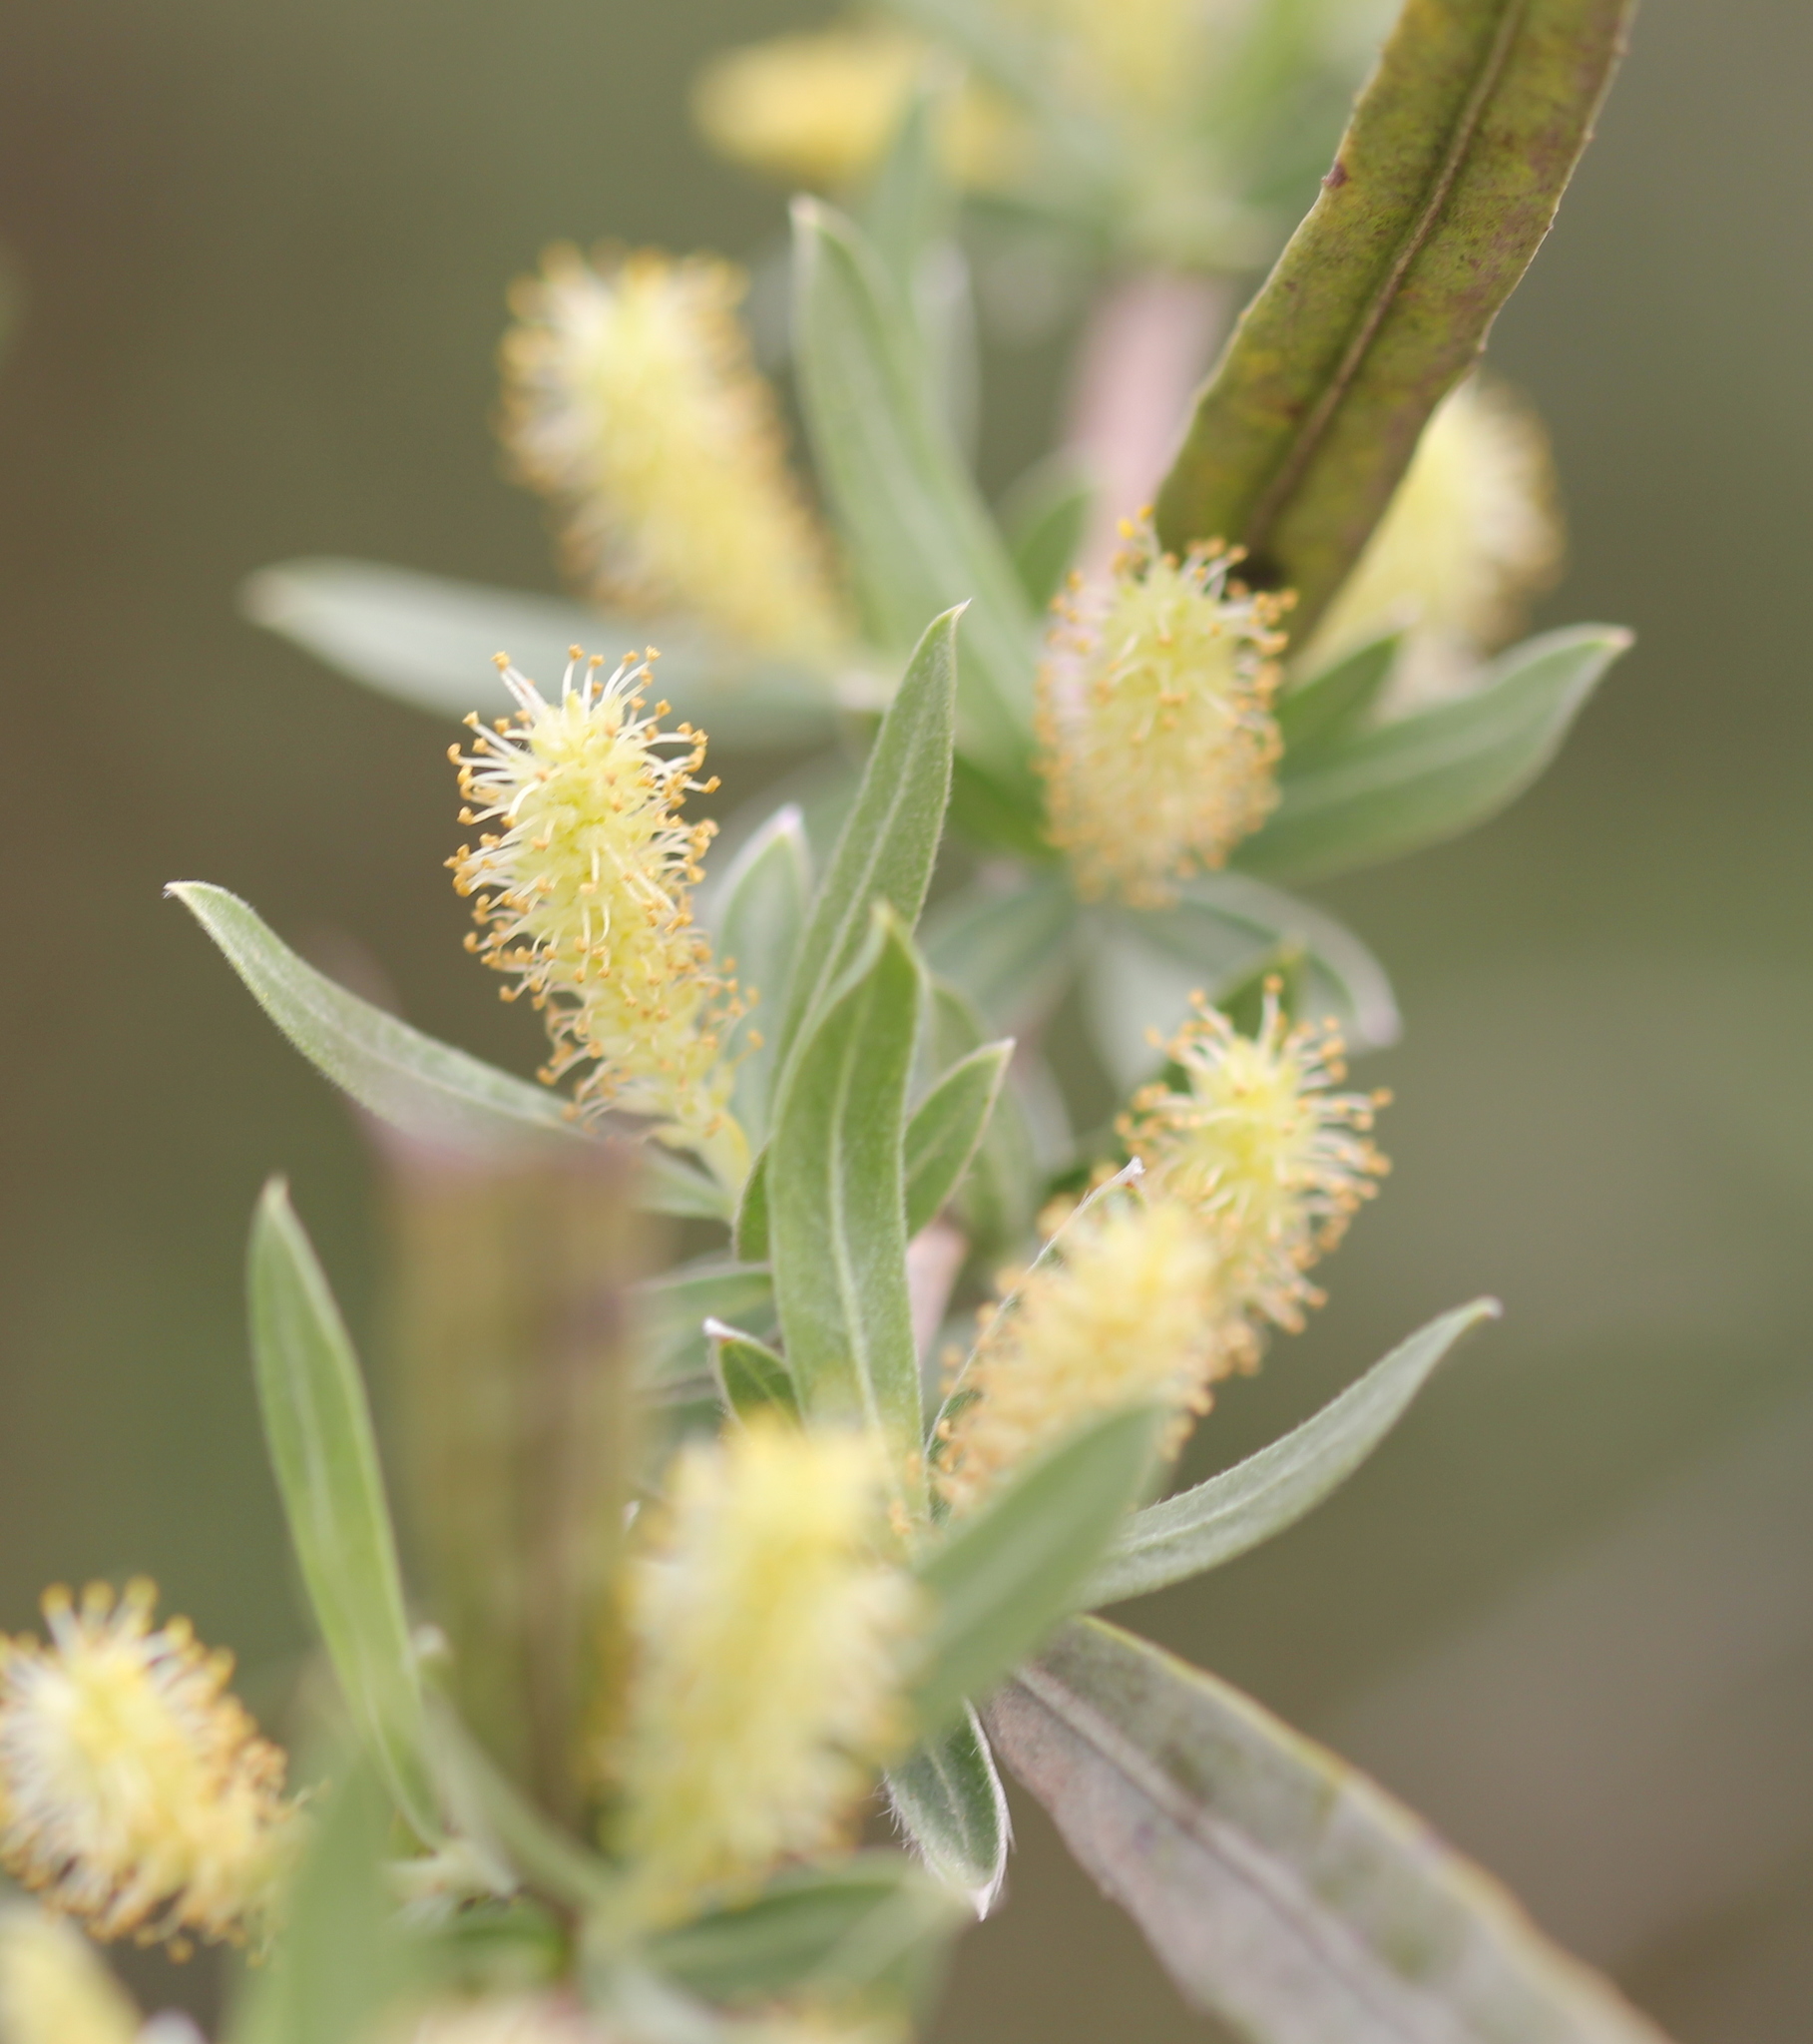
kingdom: Plantae
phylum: Tracheophyta
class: Magnoliopsida
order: Malpighiales
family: Salicaceae
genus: Salix
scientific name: Salix exigua
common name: Coyote willow
